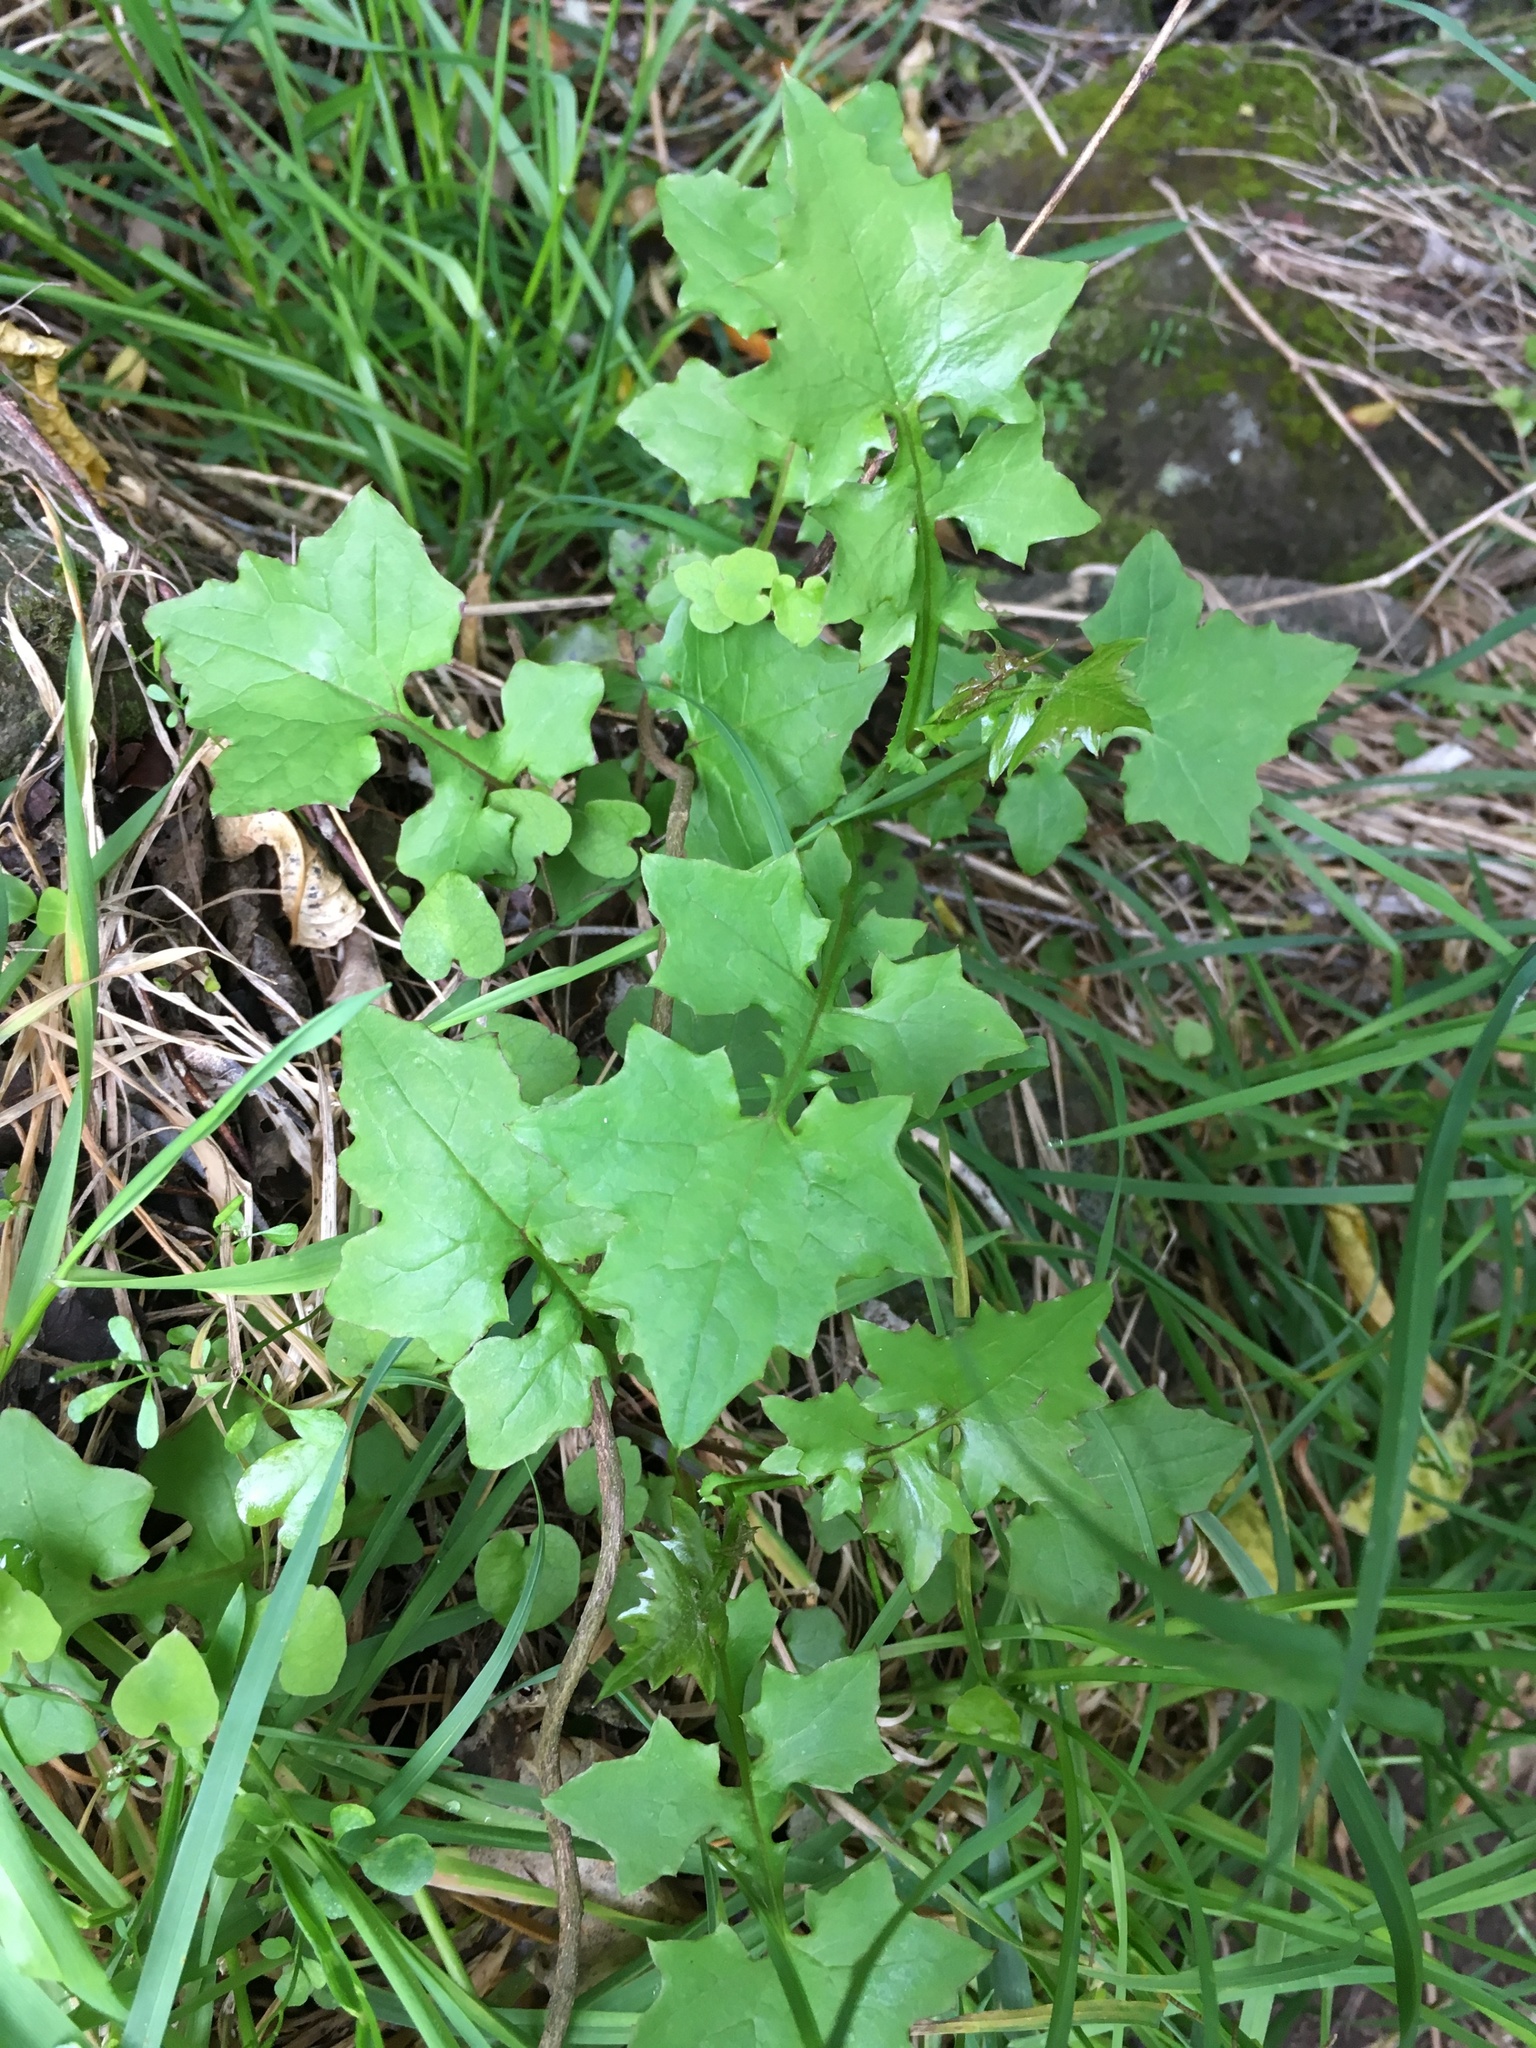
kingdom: Plantae
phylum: Tracheophyta
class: Magnoliopsida
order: Asterales
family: Asteraceae
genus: Mycelis
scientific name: Mycelis muralis
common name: Wall lettuce
